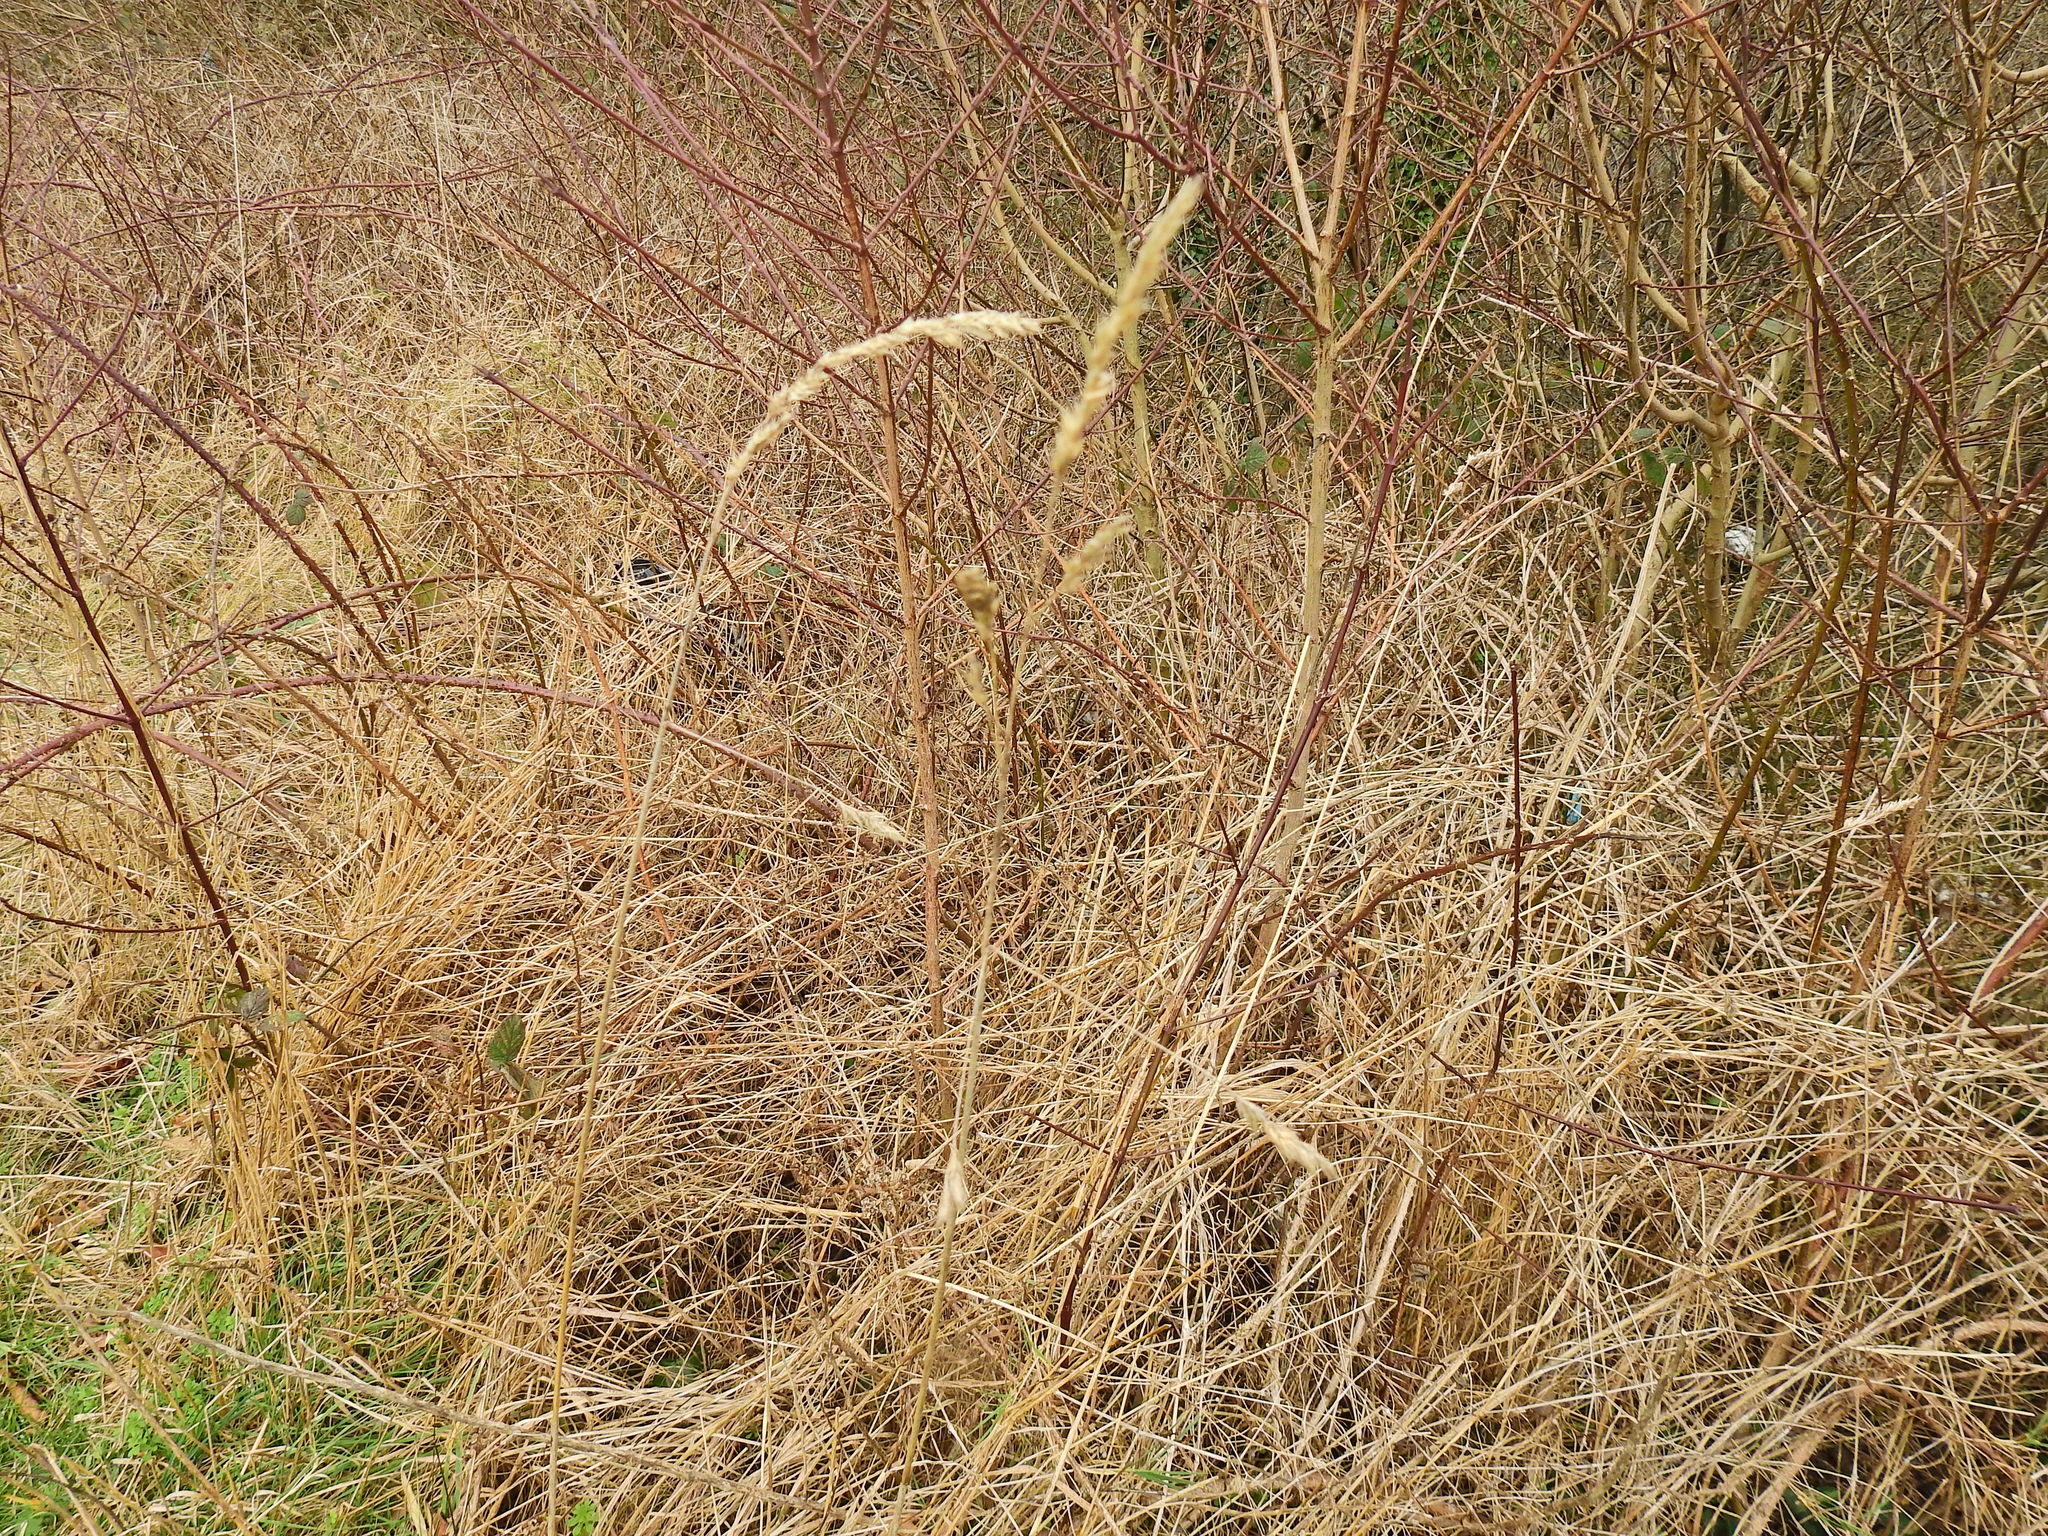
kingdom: Plantae
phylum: Tracheophyta
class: Liliopsida
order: Poales
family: Poaceae
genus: Dactylis
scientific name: Dactylis glomerata
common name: Orchardgrass
